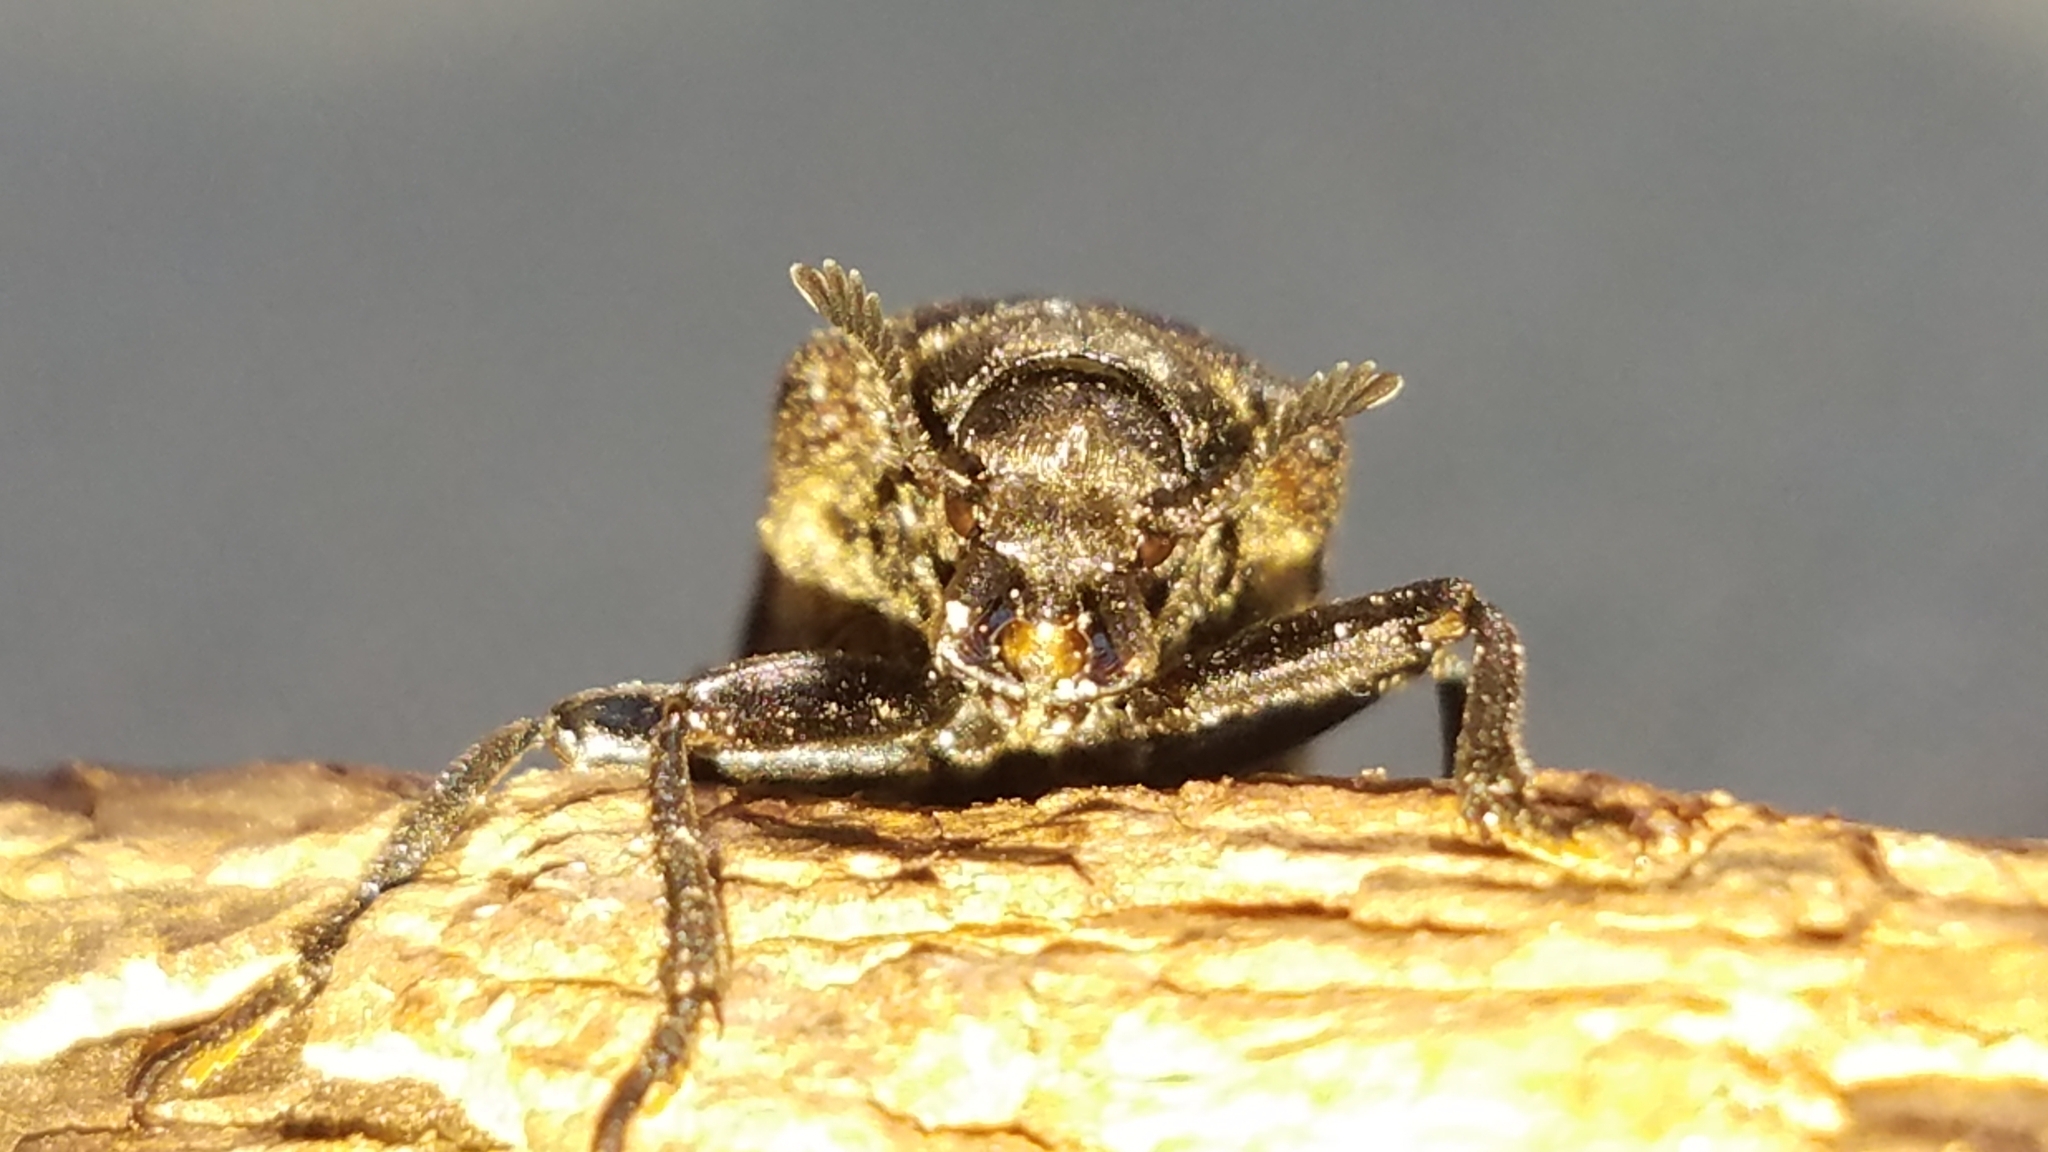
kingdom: Animalia
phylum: Arthropoda
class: Insecta
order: Coleoptera
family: Rhipiceridae
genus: Sandalus
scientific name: Sandalus niger
